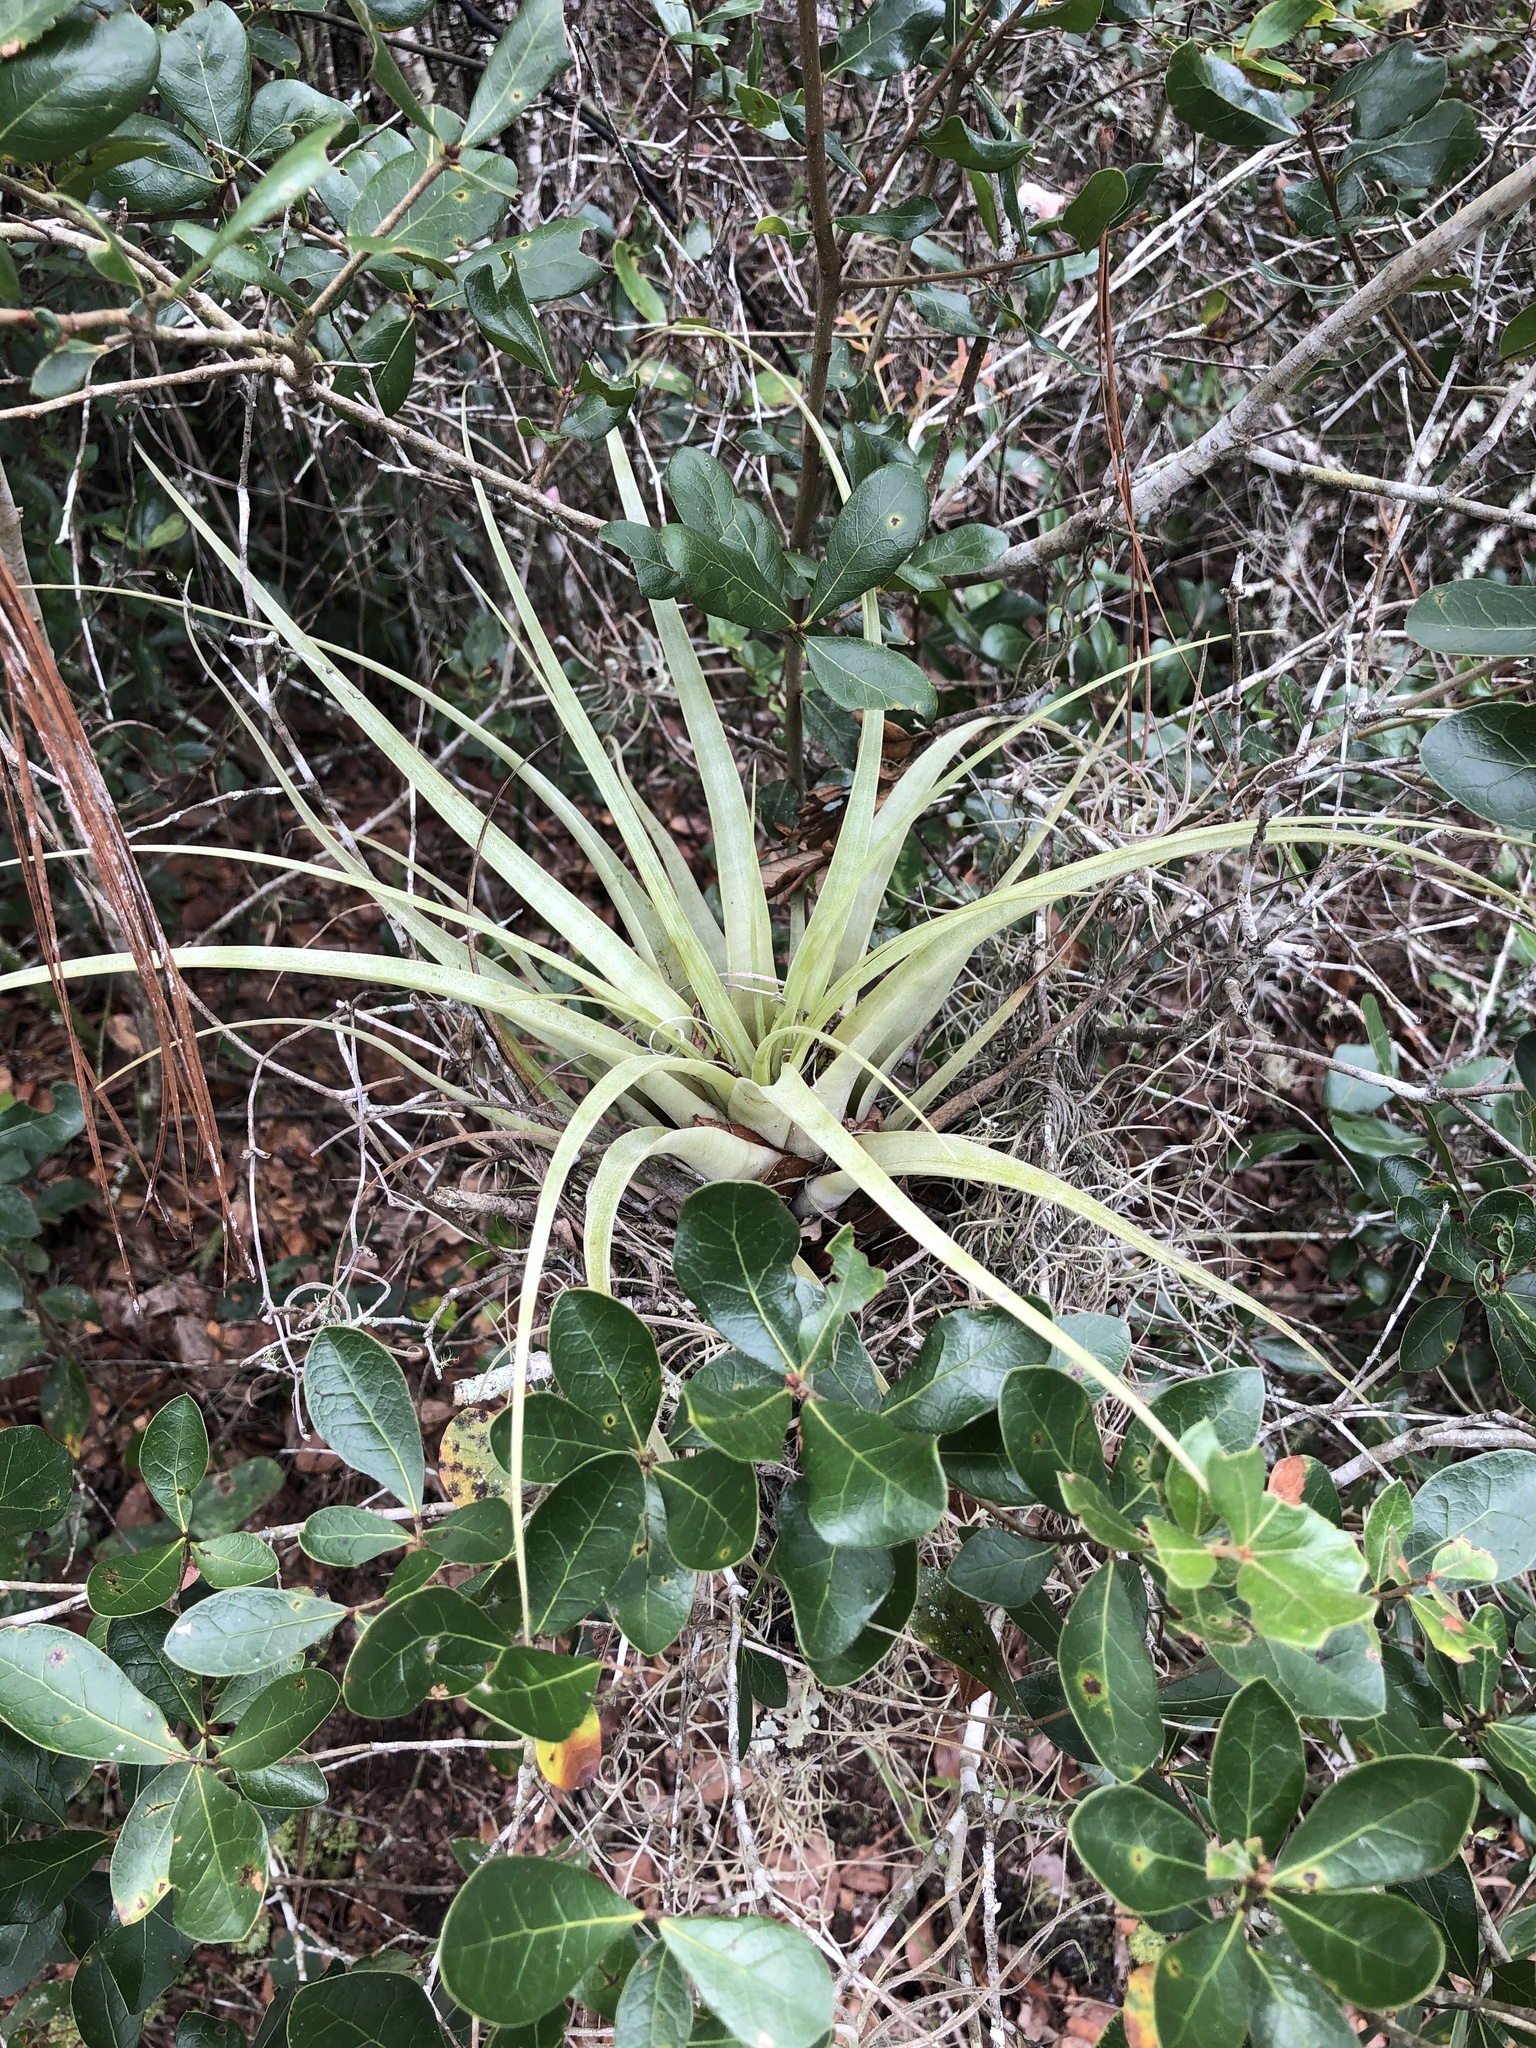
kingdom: Plantae
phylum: Tracheophyta
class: Liliopsida
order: Poales
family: Bromeliaceae
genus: Tillandsia
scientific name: Tillandsia utriculata
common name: Wild pine
